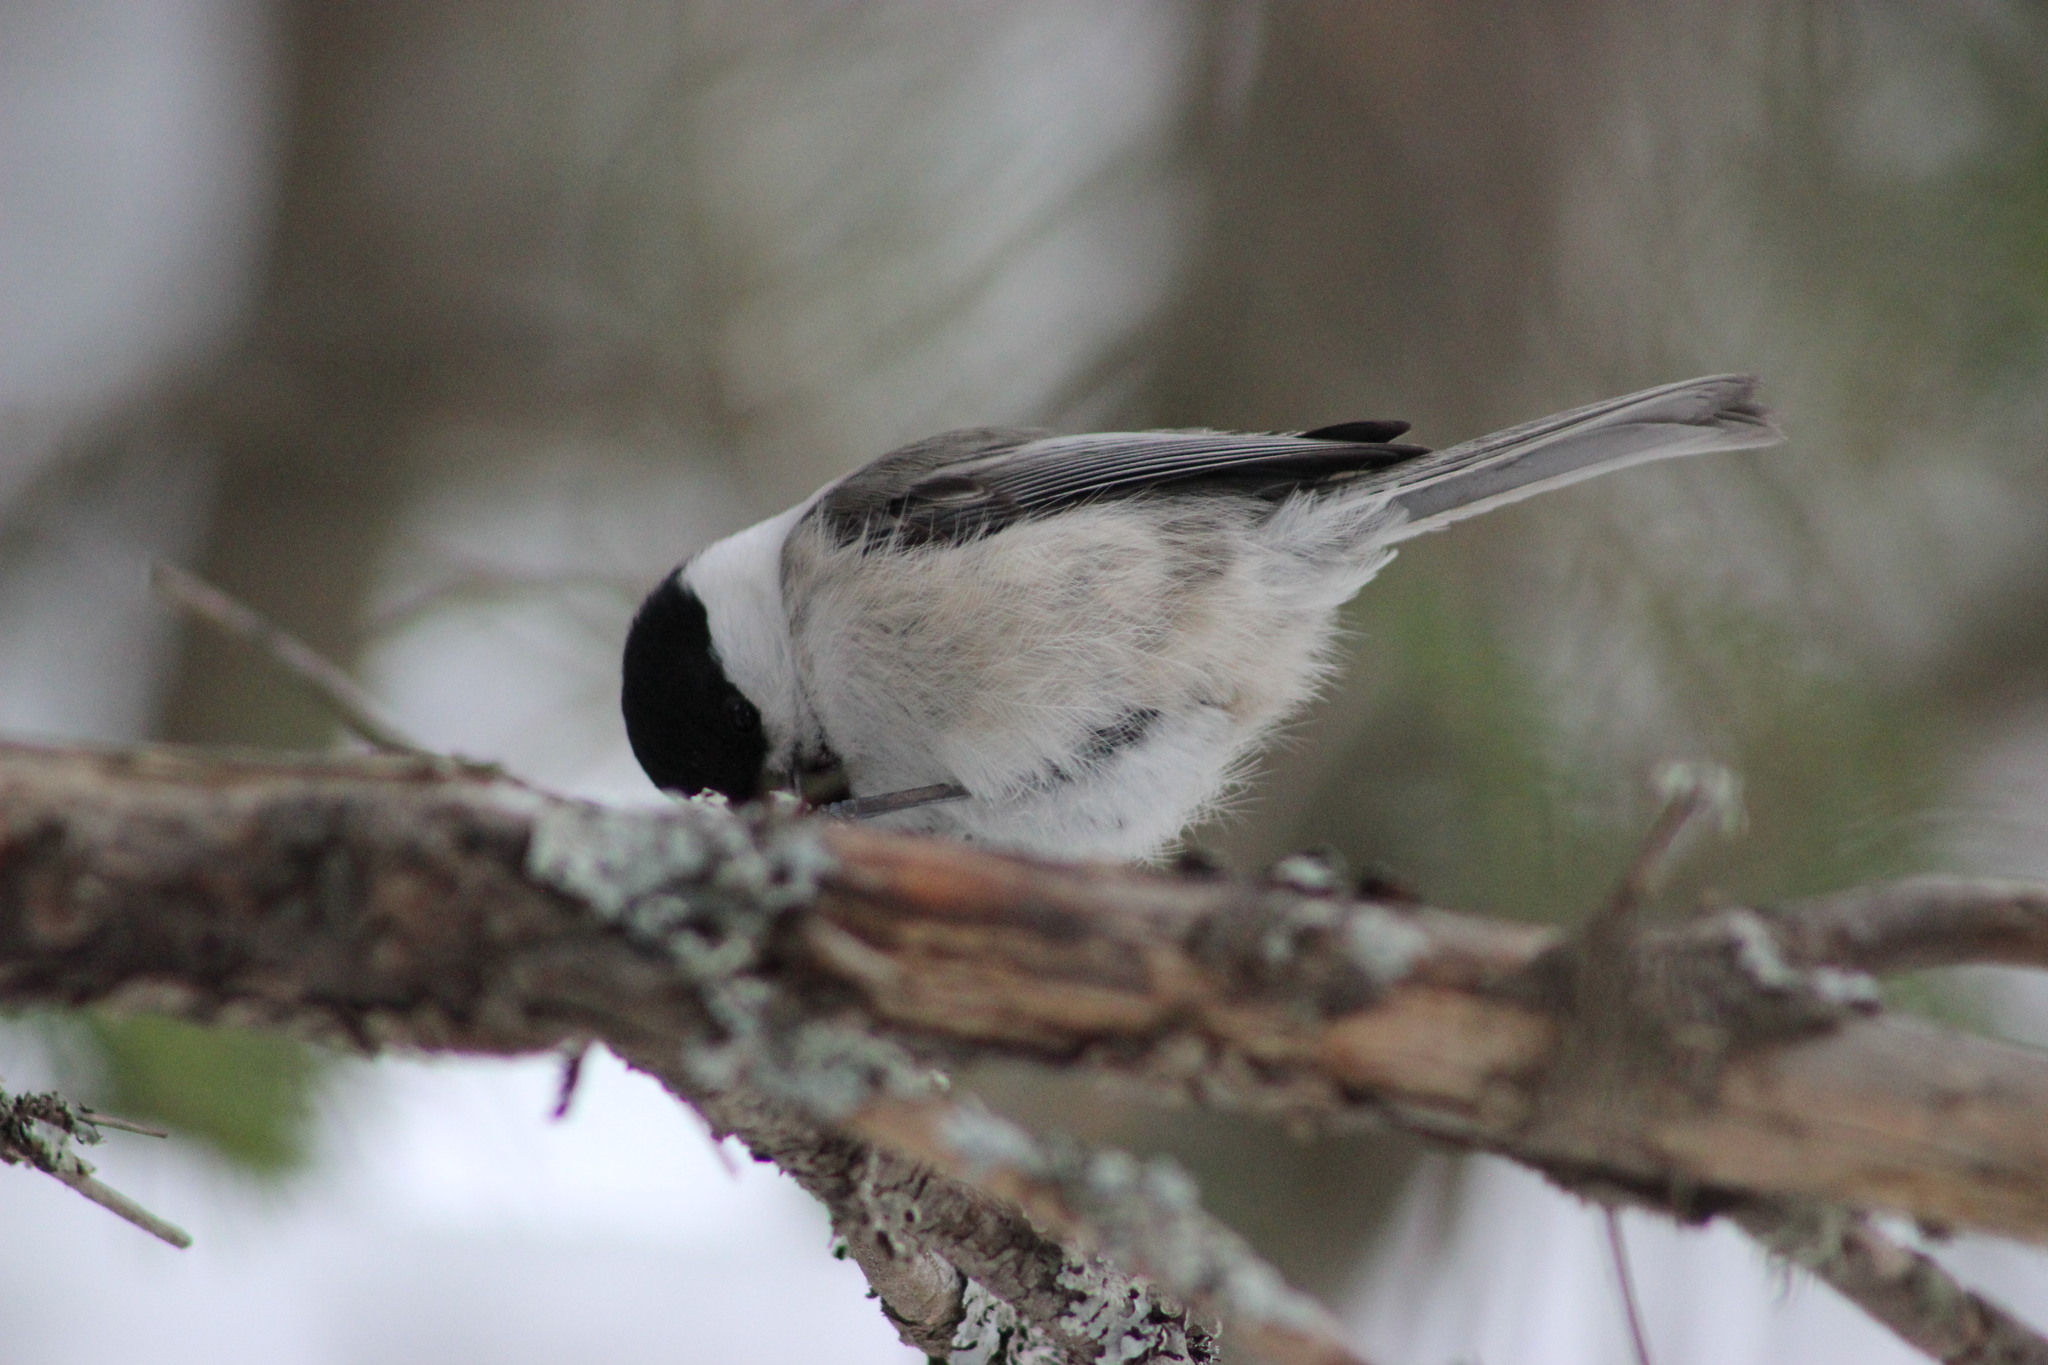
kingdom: Animalia
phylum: Chordata
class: Aves
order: Passeriformes
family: Paridae
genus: Poecile
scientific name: Poecile montanus
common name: Willow tit
